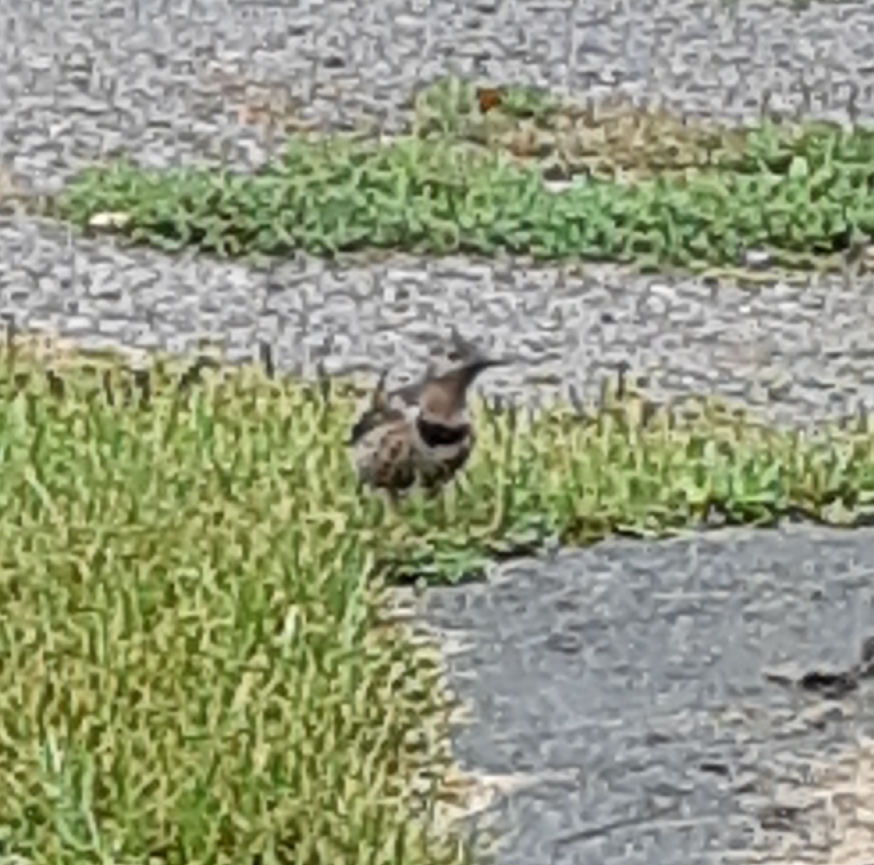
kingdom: Animalia
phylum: Chordata
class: Aves
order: Piciformes
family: Picidae
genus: Colaptes
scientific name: Colaptes auratus
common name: Northern flicker
